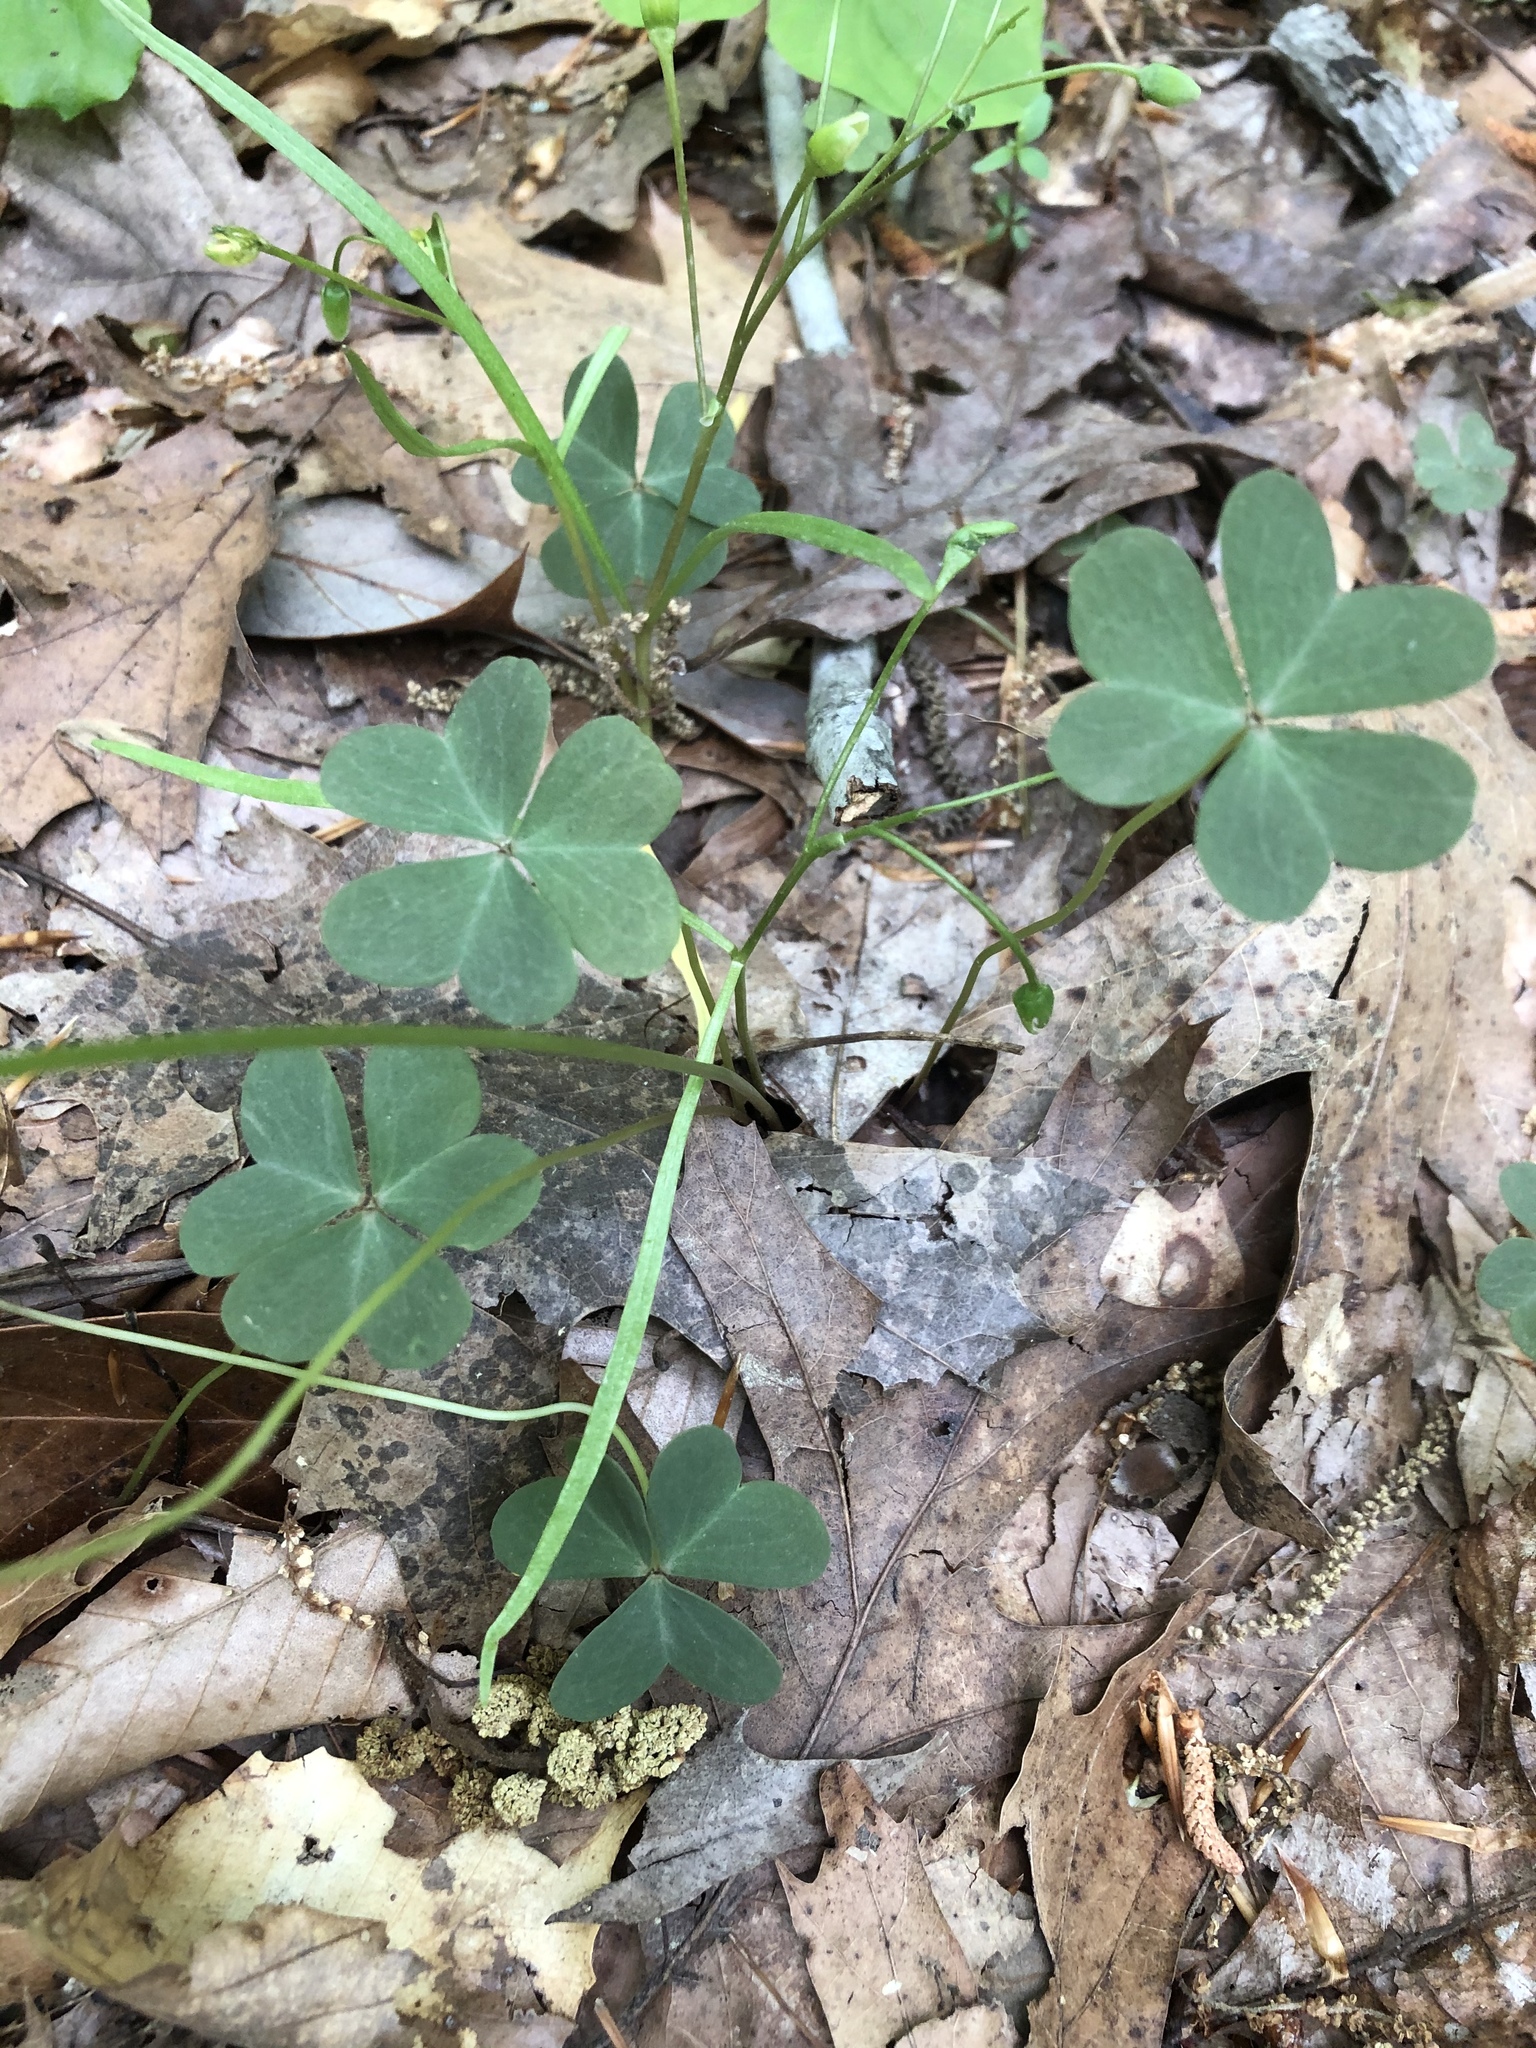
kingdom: Plantae
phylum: Tracheophyta
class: Magnoliopsida
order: Oxalidales
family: Oxalidaceae
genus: Oxalis
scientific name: Oxalis violacea
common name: Violet wood-sorrel
